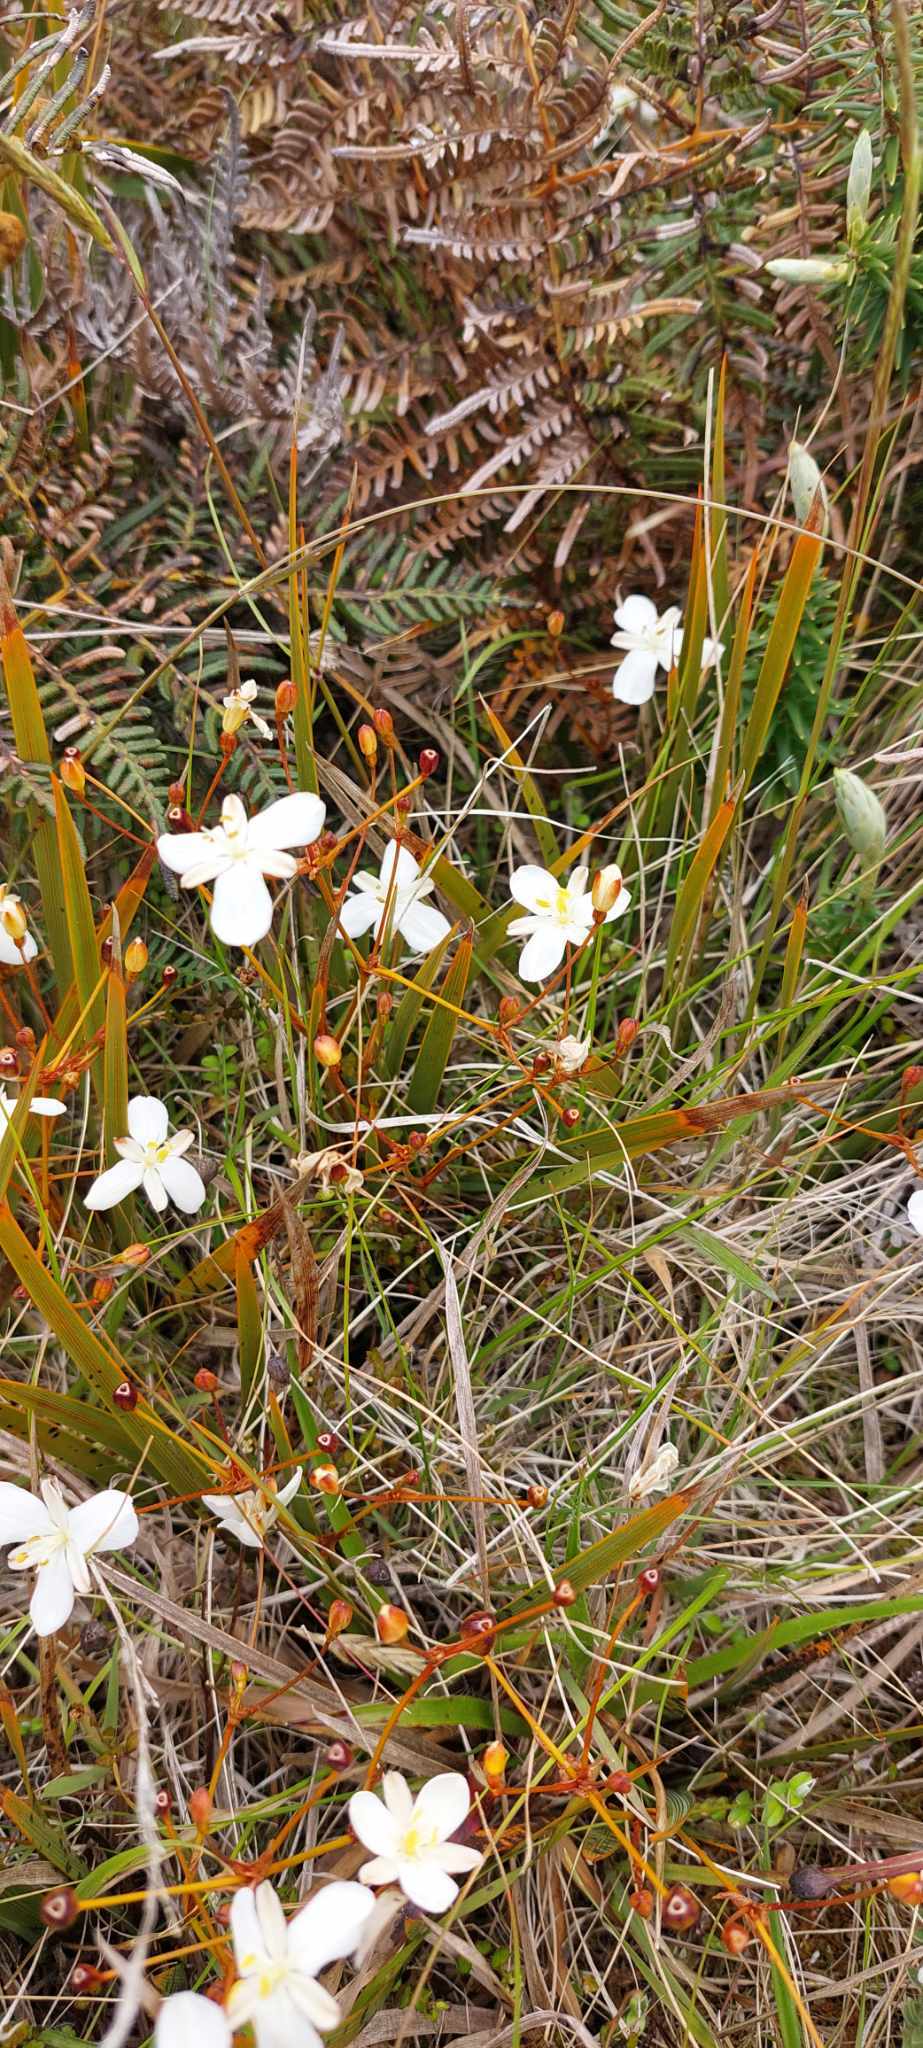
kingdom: Plantae
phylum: Tracheophyta
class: Liliopsida
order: Asparagales
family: Iridaceae
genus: Libertia
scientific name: Libertia peregrinans
